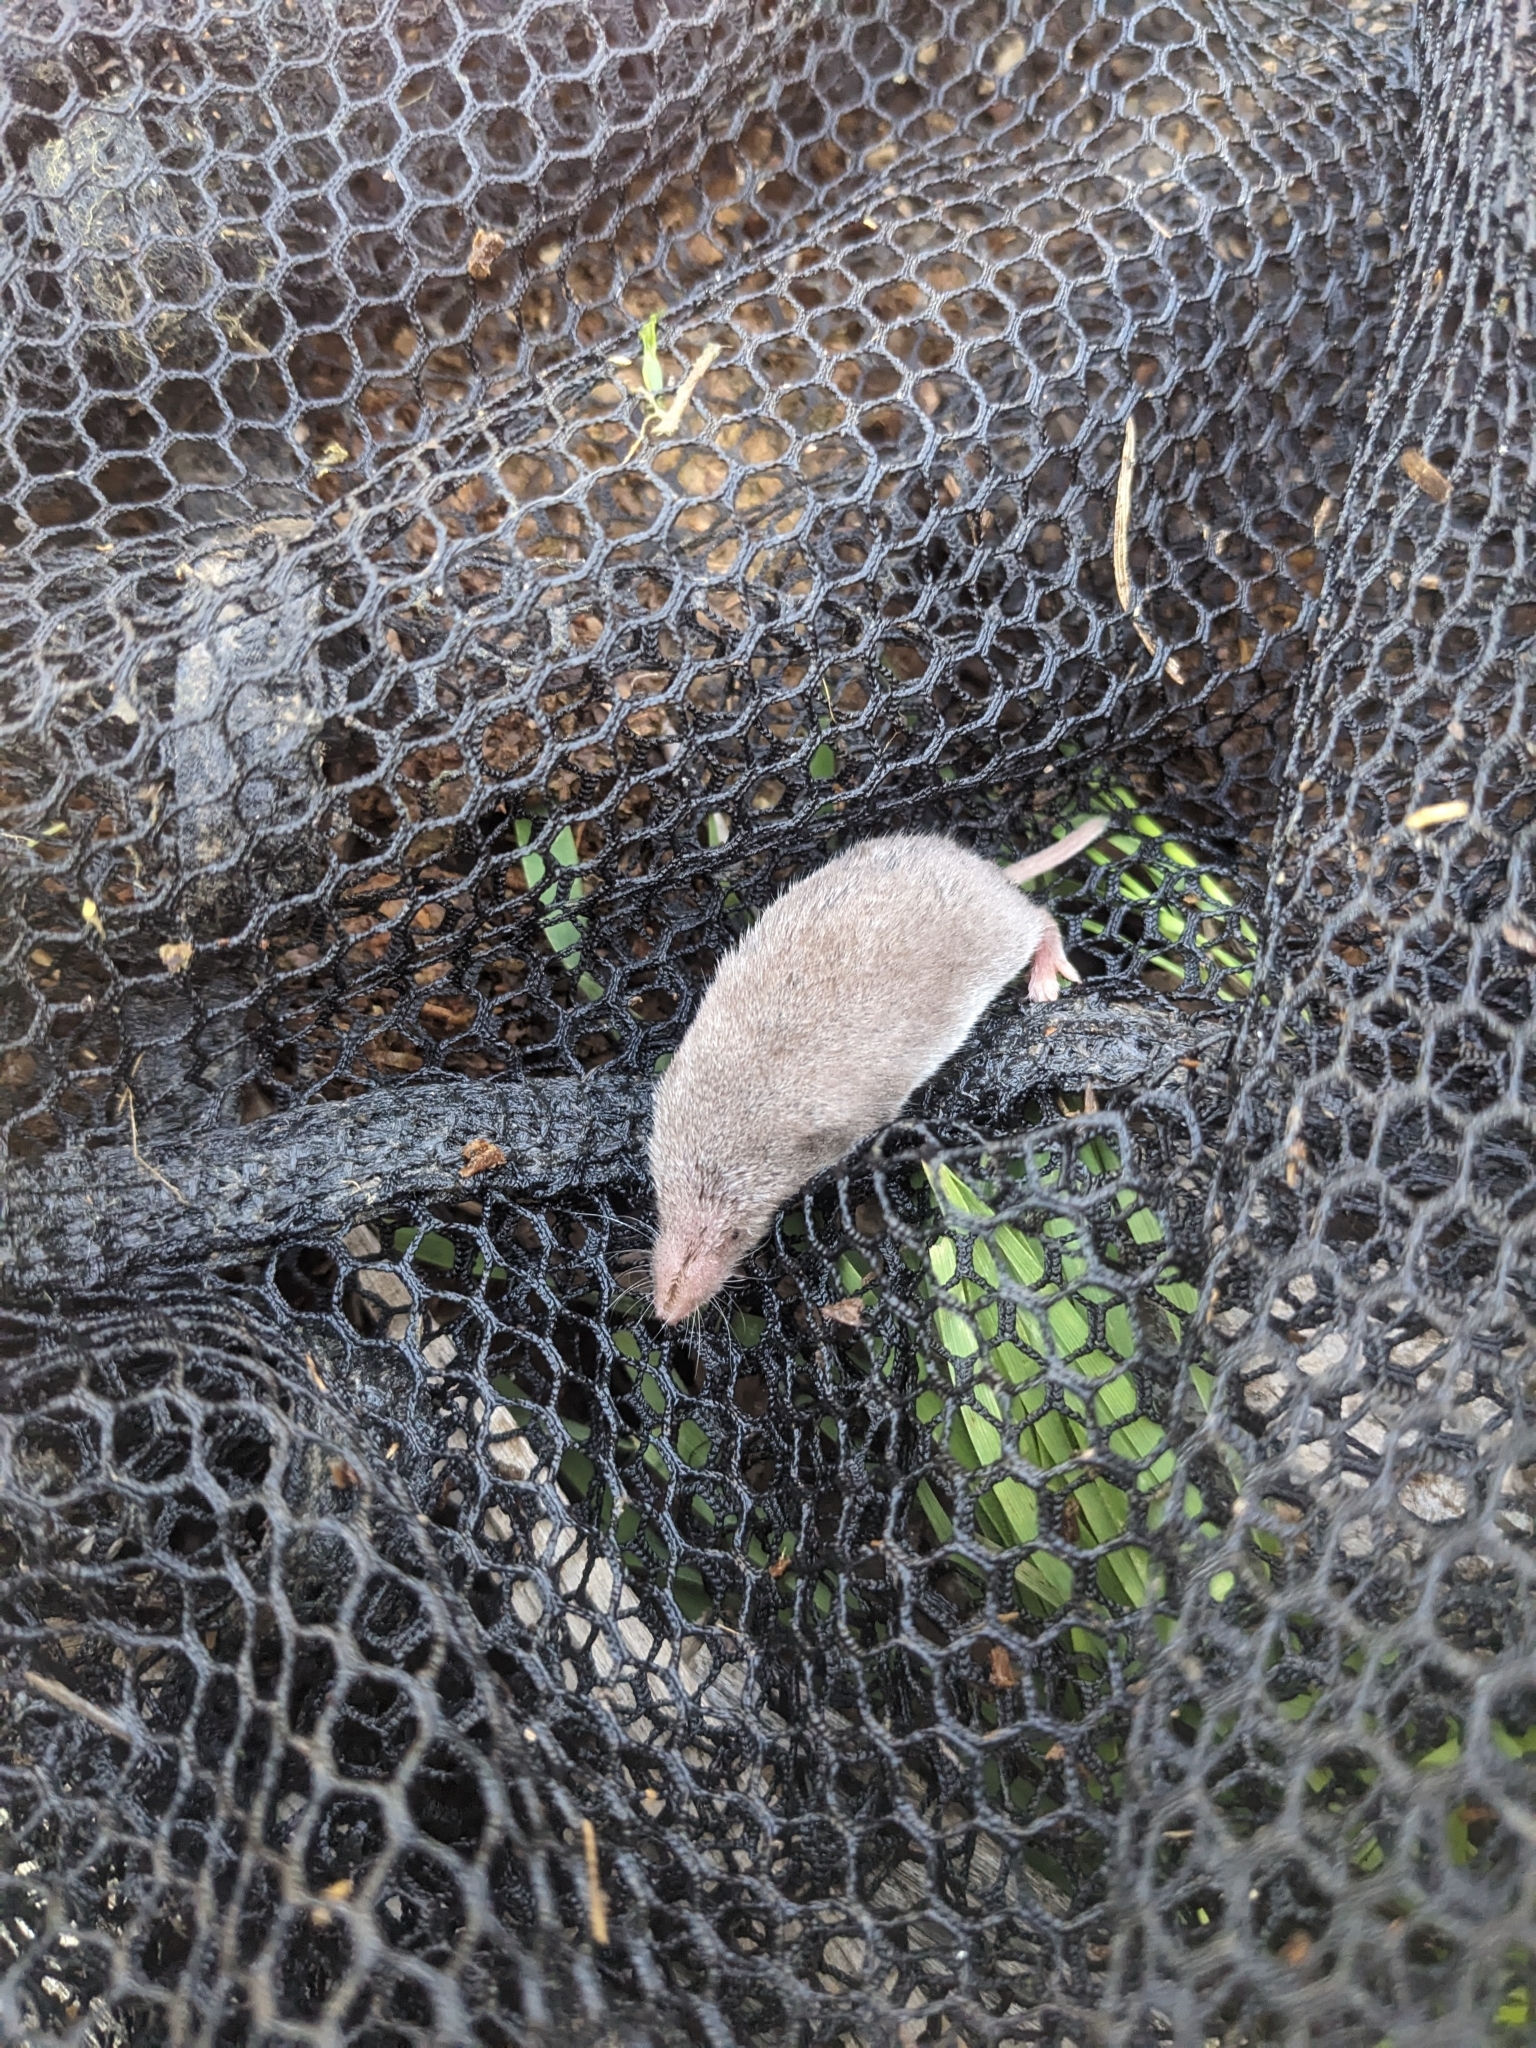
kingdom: Animalia
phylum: Chordata
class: Mammalia
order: Soricomorpha
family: Soricidae
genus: Cryptotis
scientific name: Cryptotis parva
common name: North american least shrew
